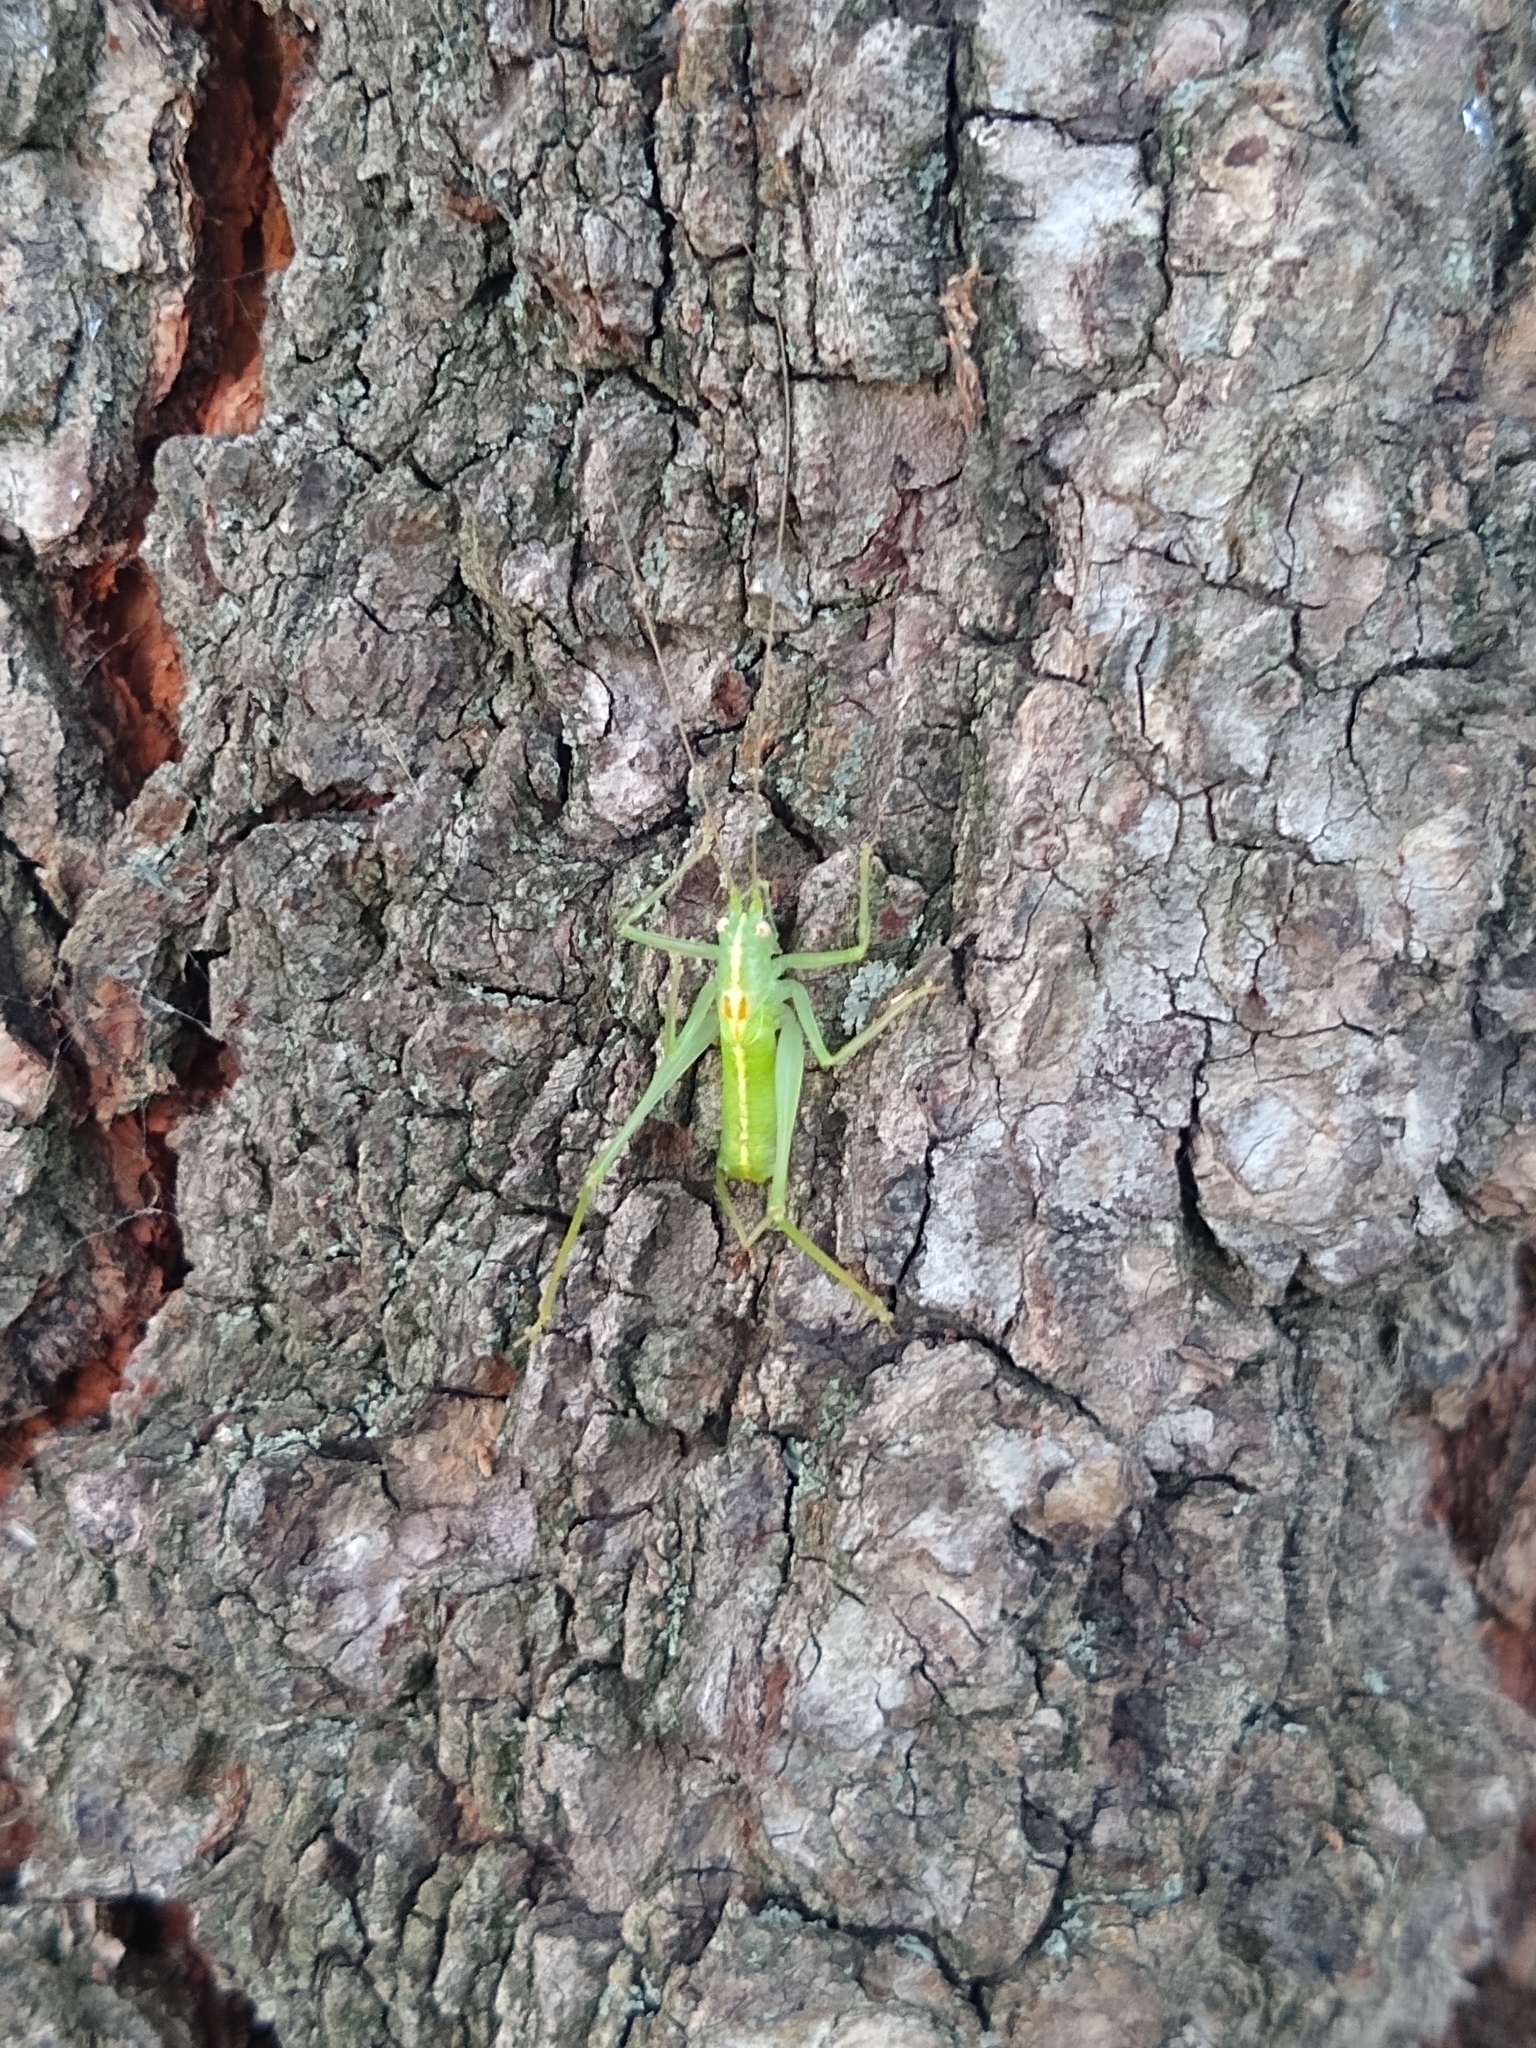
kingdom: Animalia
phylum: Arthropoda
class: Insecta
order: Orthoptera
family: Tettigoniidae
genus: Meconema
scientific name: Meconema meridionale
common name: Southern oak bush-cricket
